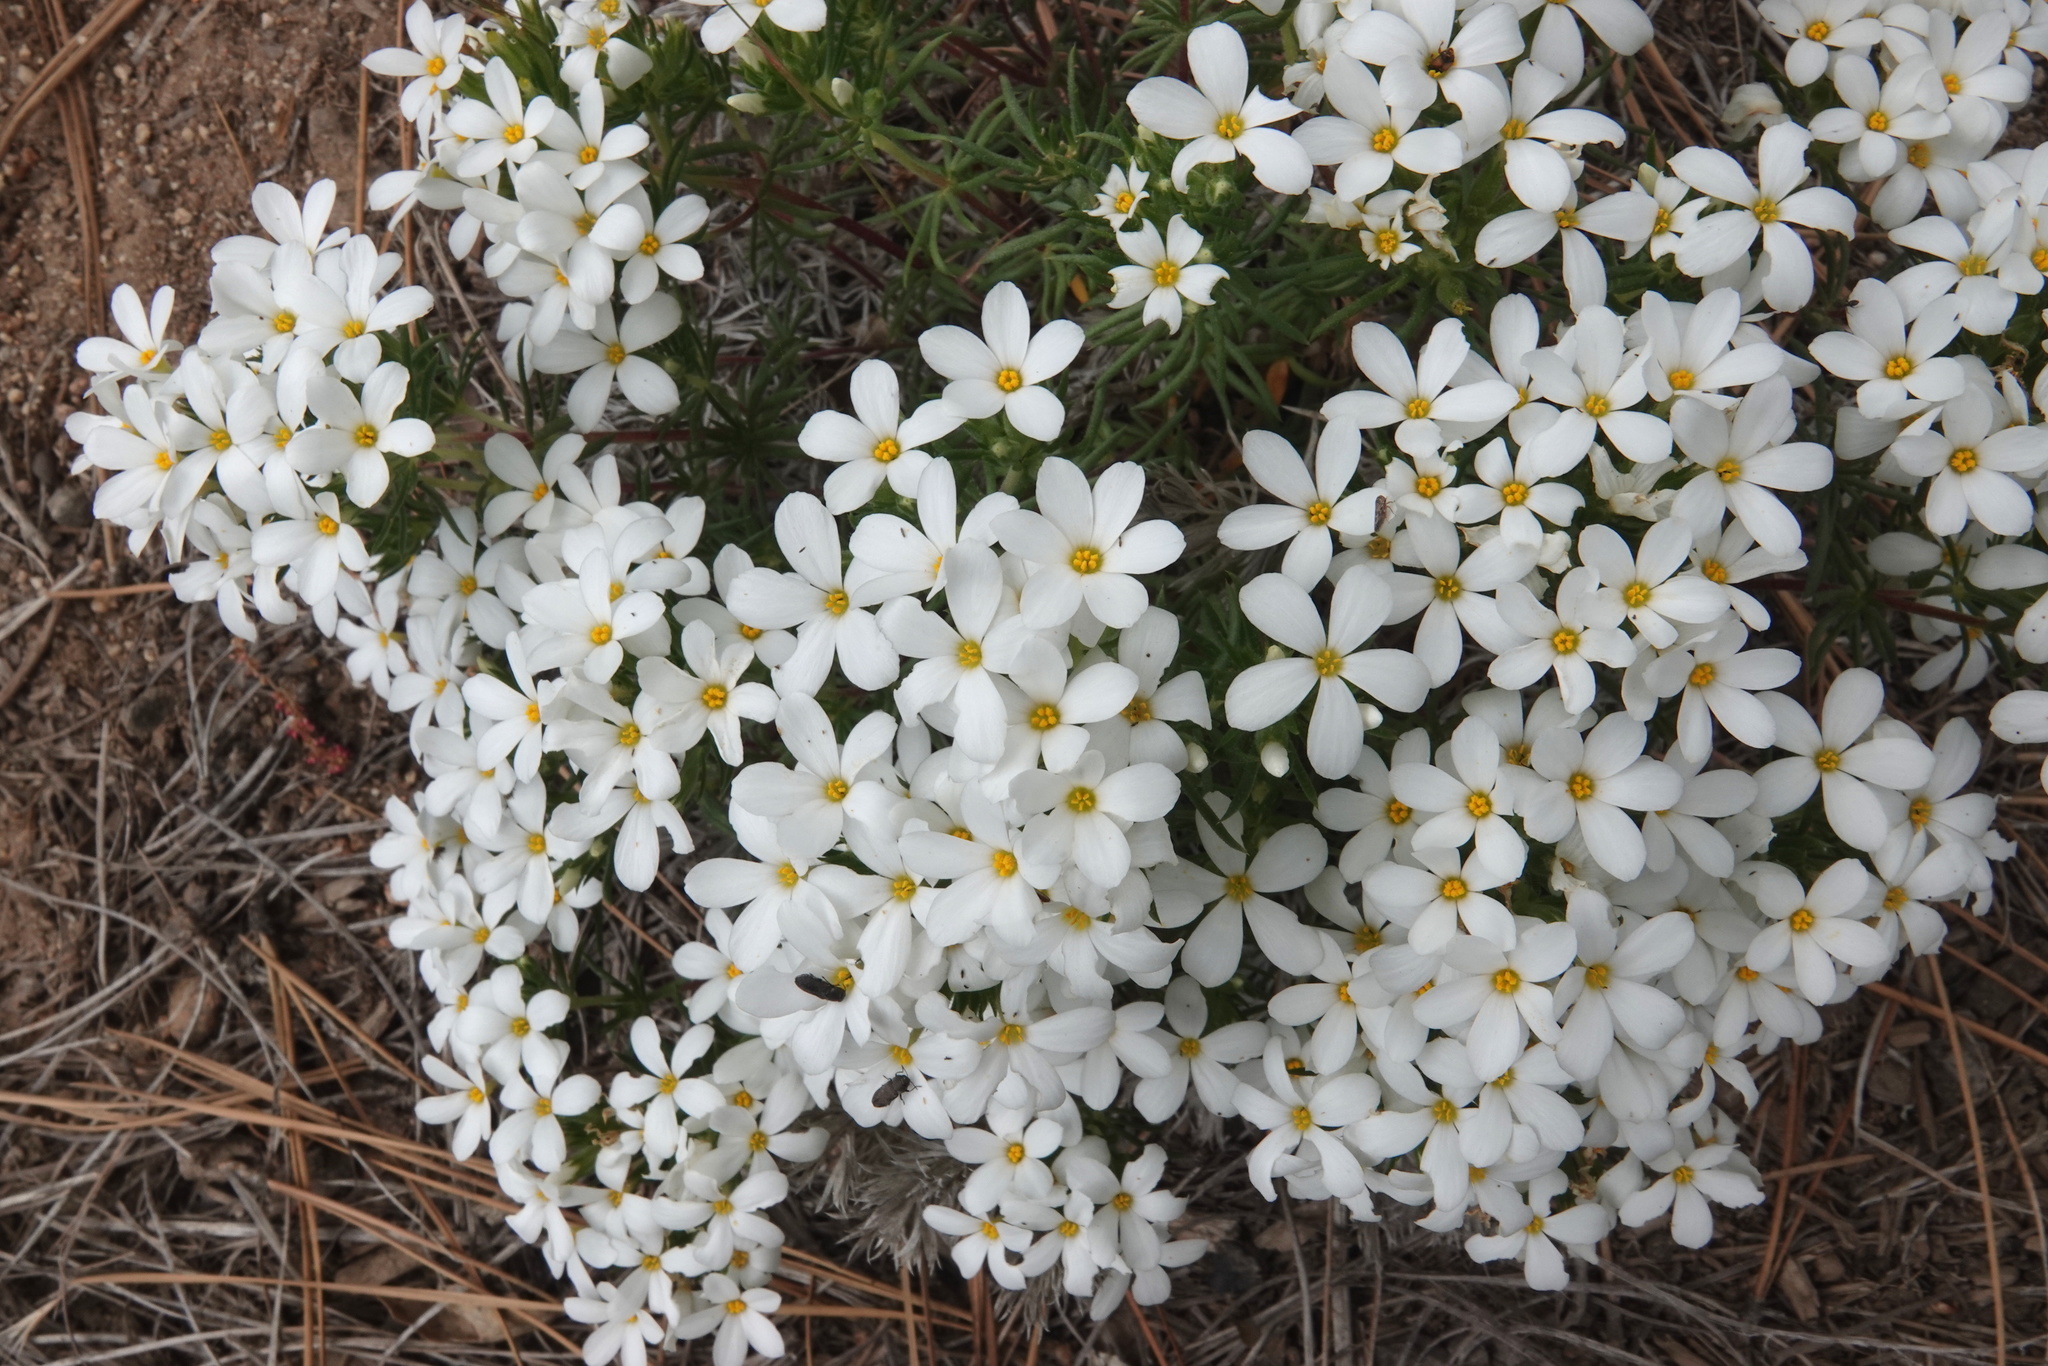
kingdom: Plantae
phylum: Tracheophyta
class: Magnoliopsida
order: Ericales
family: Polemoniaceae
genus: Leptosiphon
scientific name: Leptosiphon floribundum
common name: Many-flower linanthus
